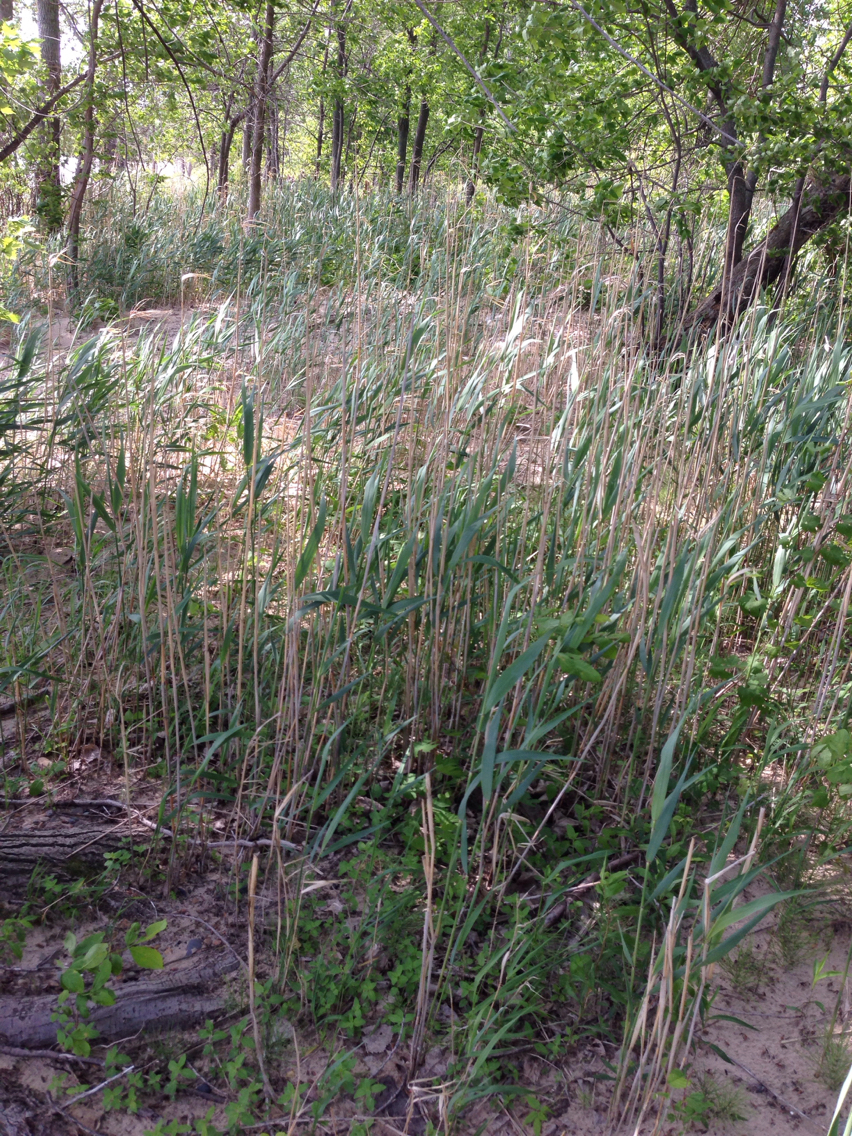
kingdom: Plantae
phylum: Tracheophyta
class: Liliopsida
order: Poales
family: Poaceae
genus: Phragmites
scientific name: Phragmites australis
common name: Common reed
